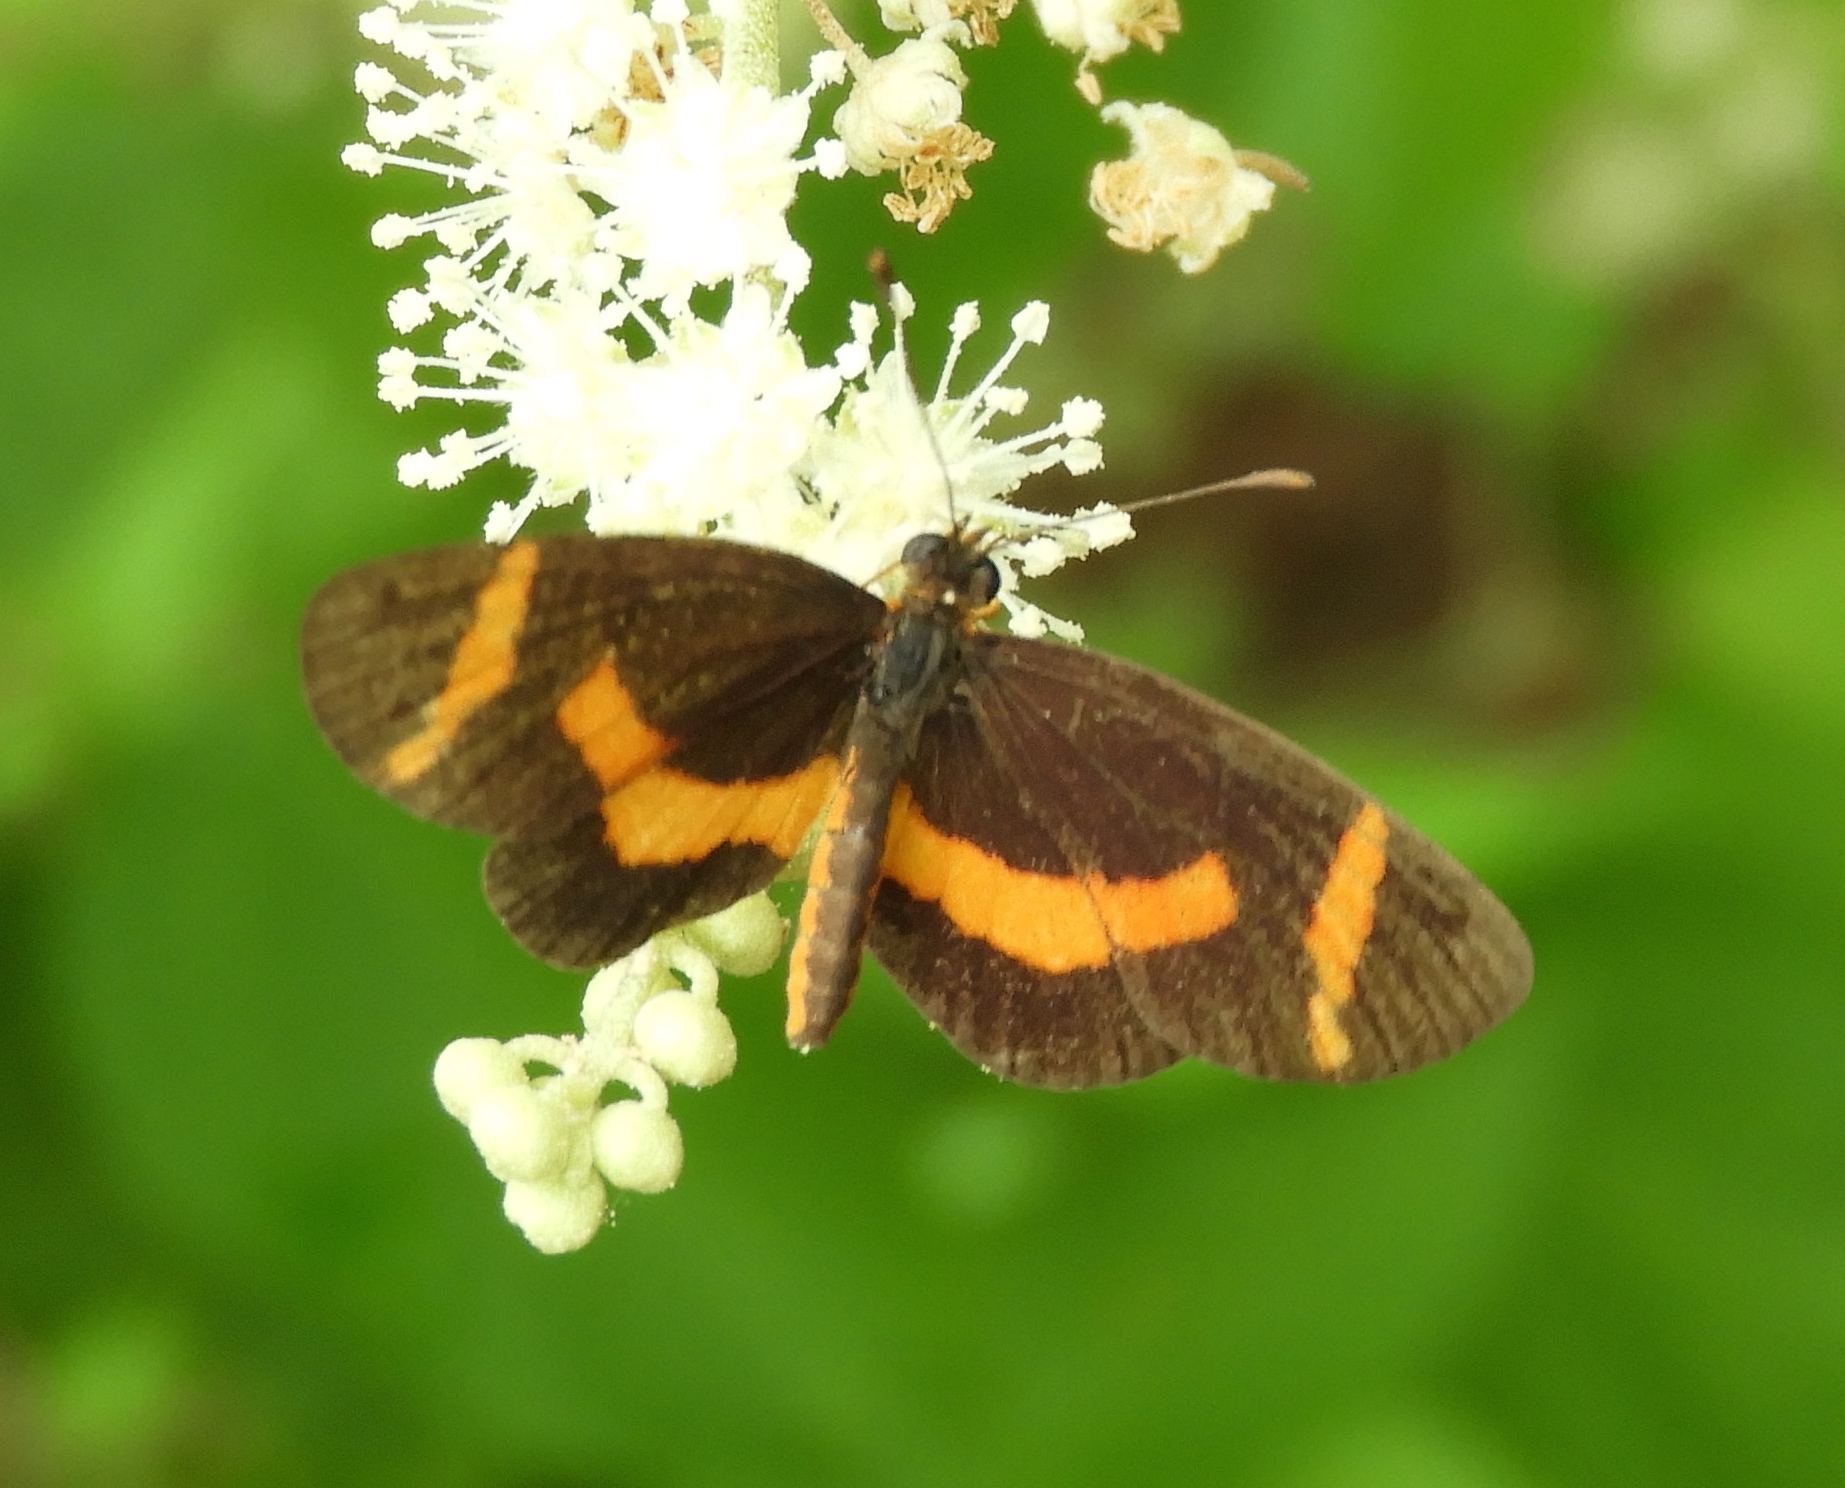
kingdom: Animalia
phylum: Arthropoda
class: Insecta
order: Lepidoptera
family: Nymphalidae
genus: Microtia
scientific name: Microtia elva
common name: Elf
